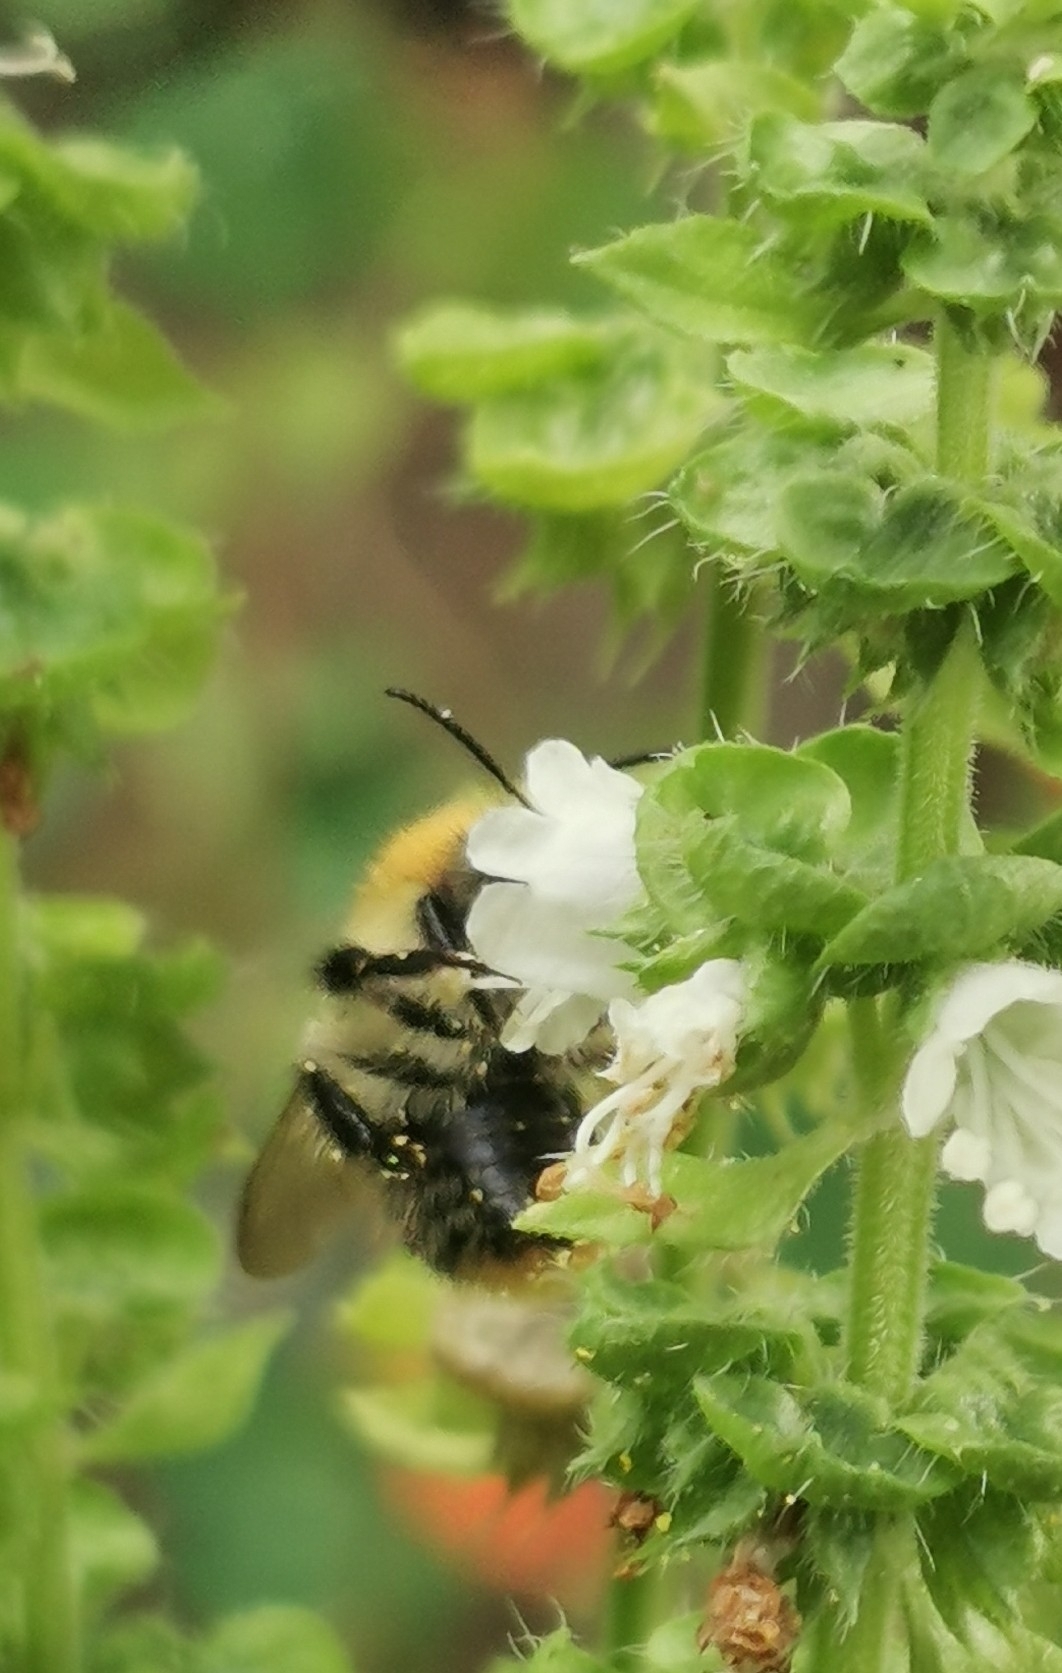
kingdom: Animalia
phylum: Arthropoda
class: Insecta
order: Hymenoptera
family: Apidae
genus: Bombus
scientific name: Bombus pascuorum
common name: Common carder bee
